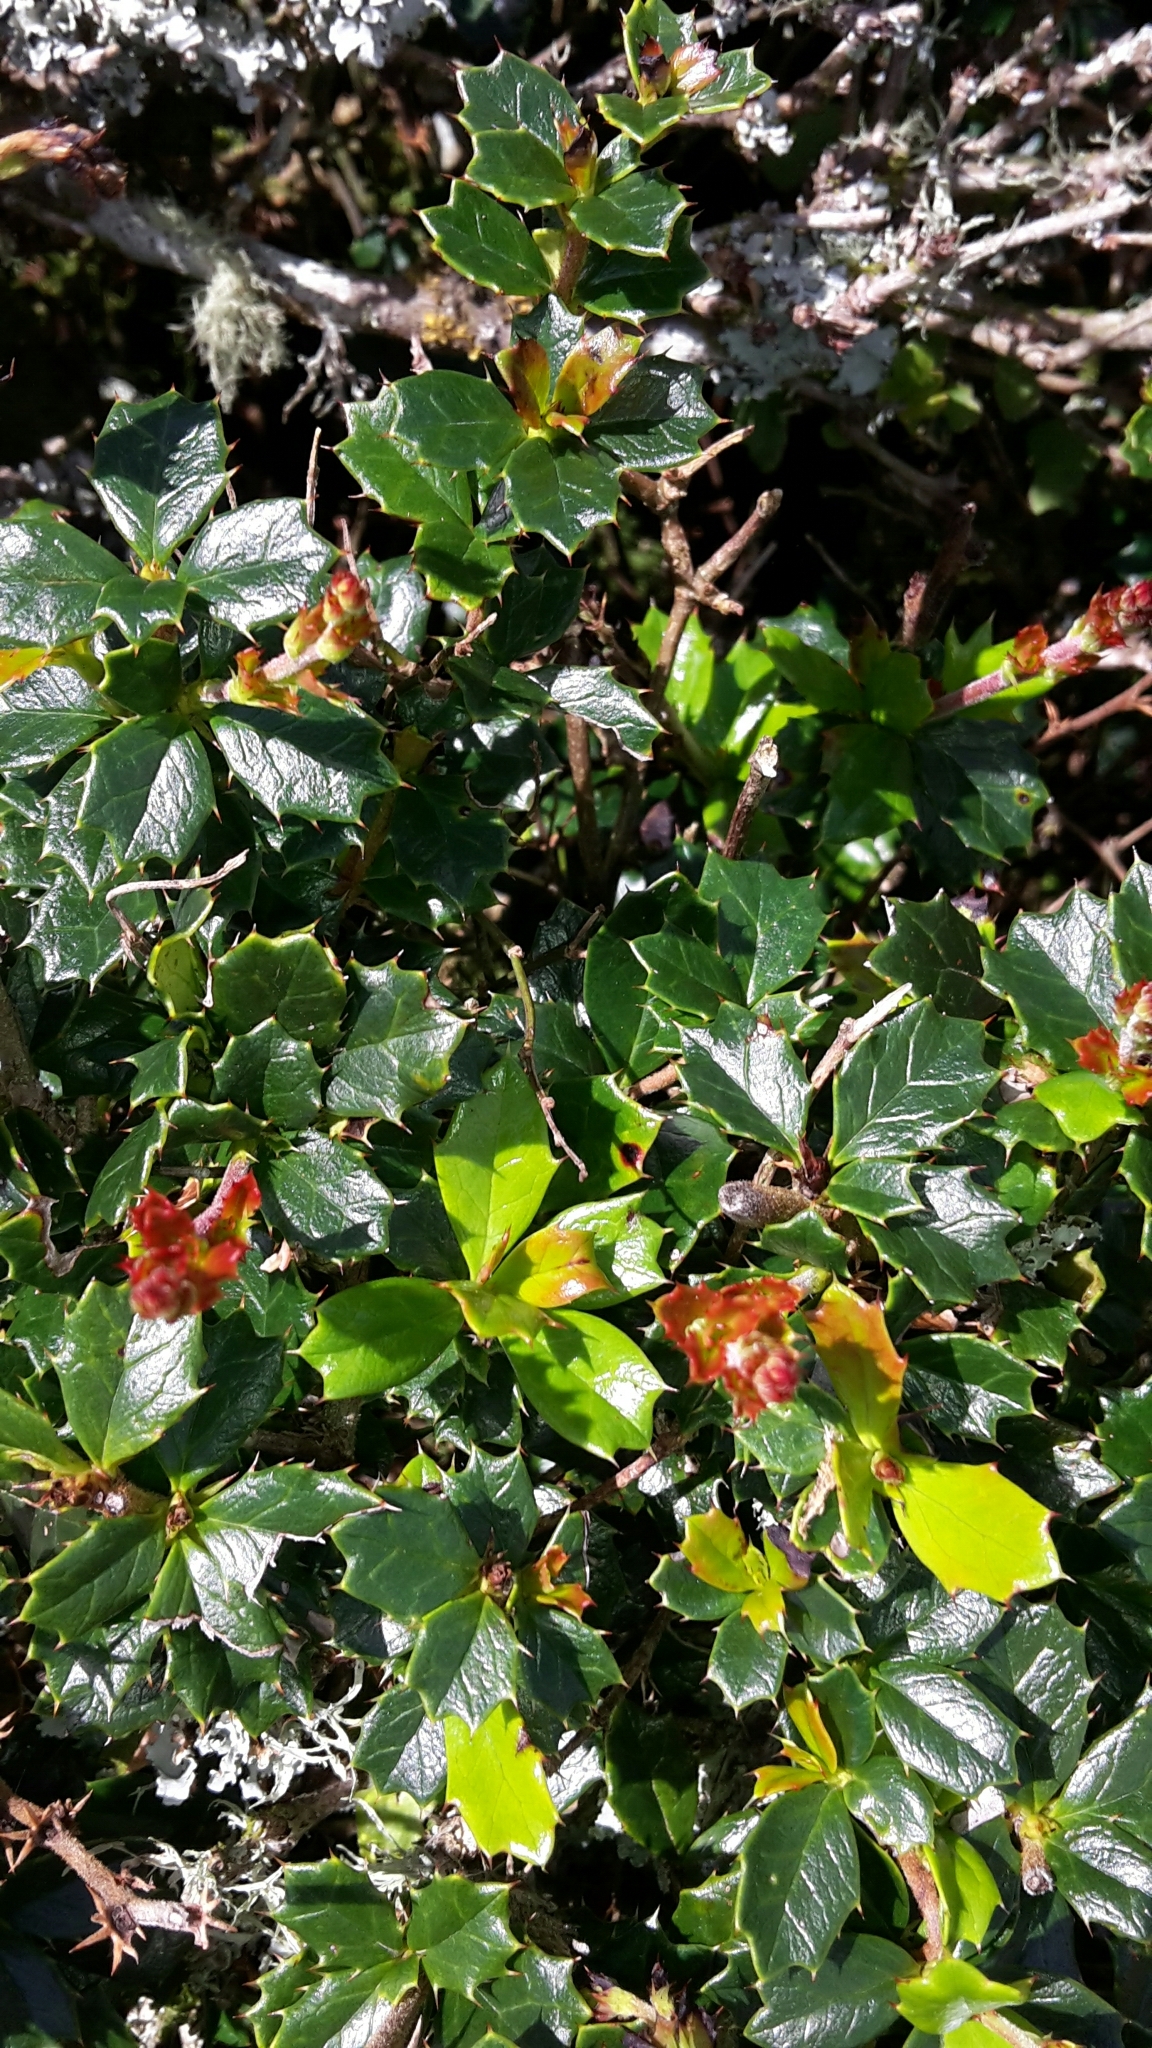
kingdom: Plantae
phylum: Tracheophyta
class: Magnoliopsida
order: Ranunculales
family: Berberidaceae
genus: Berberis
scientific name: Berberis darwinii
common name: Darwin's barberry
